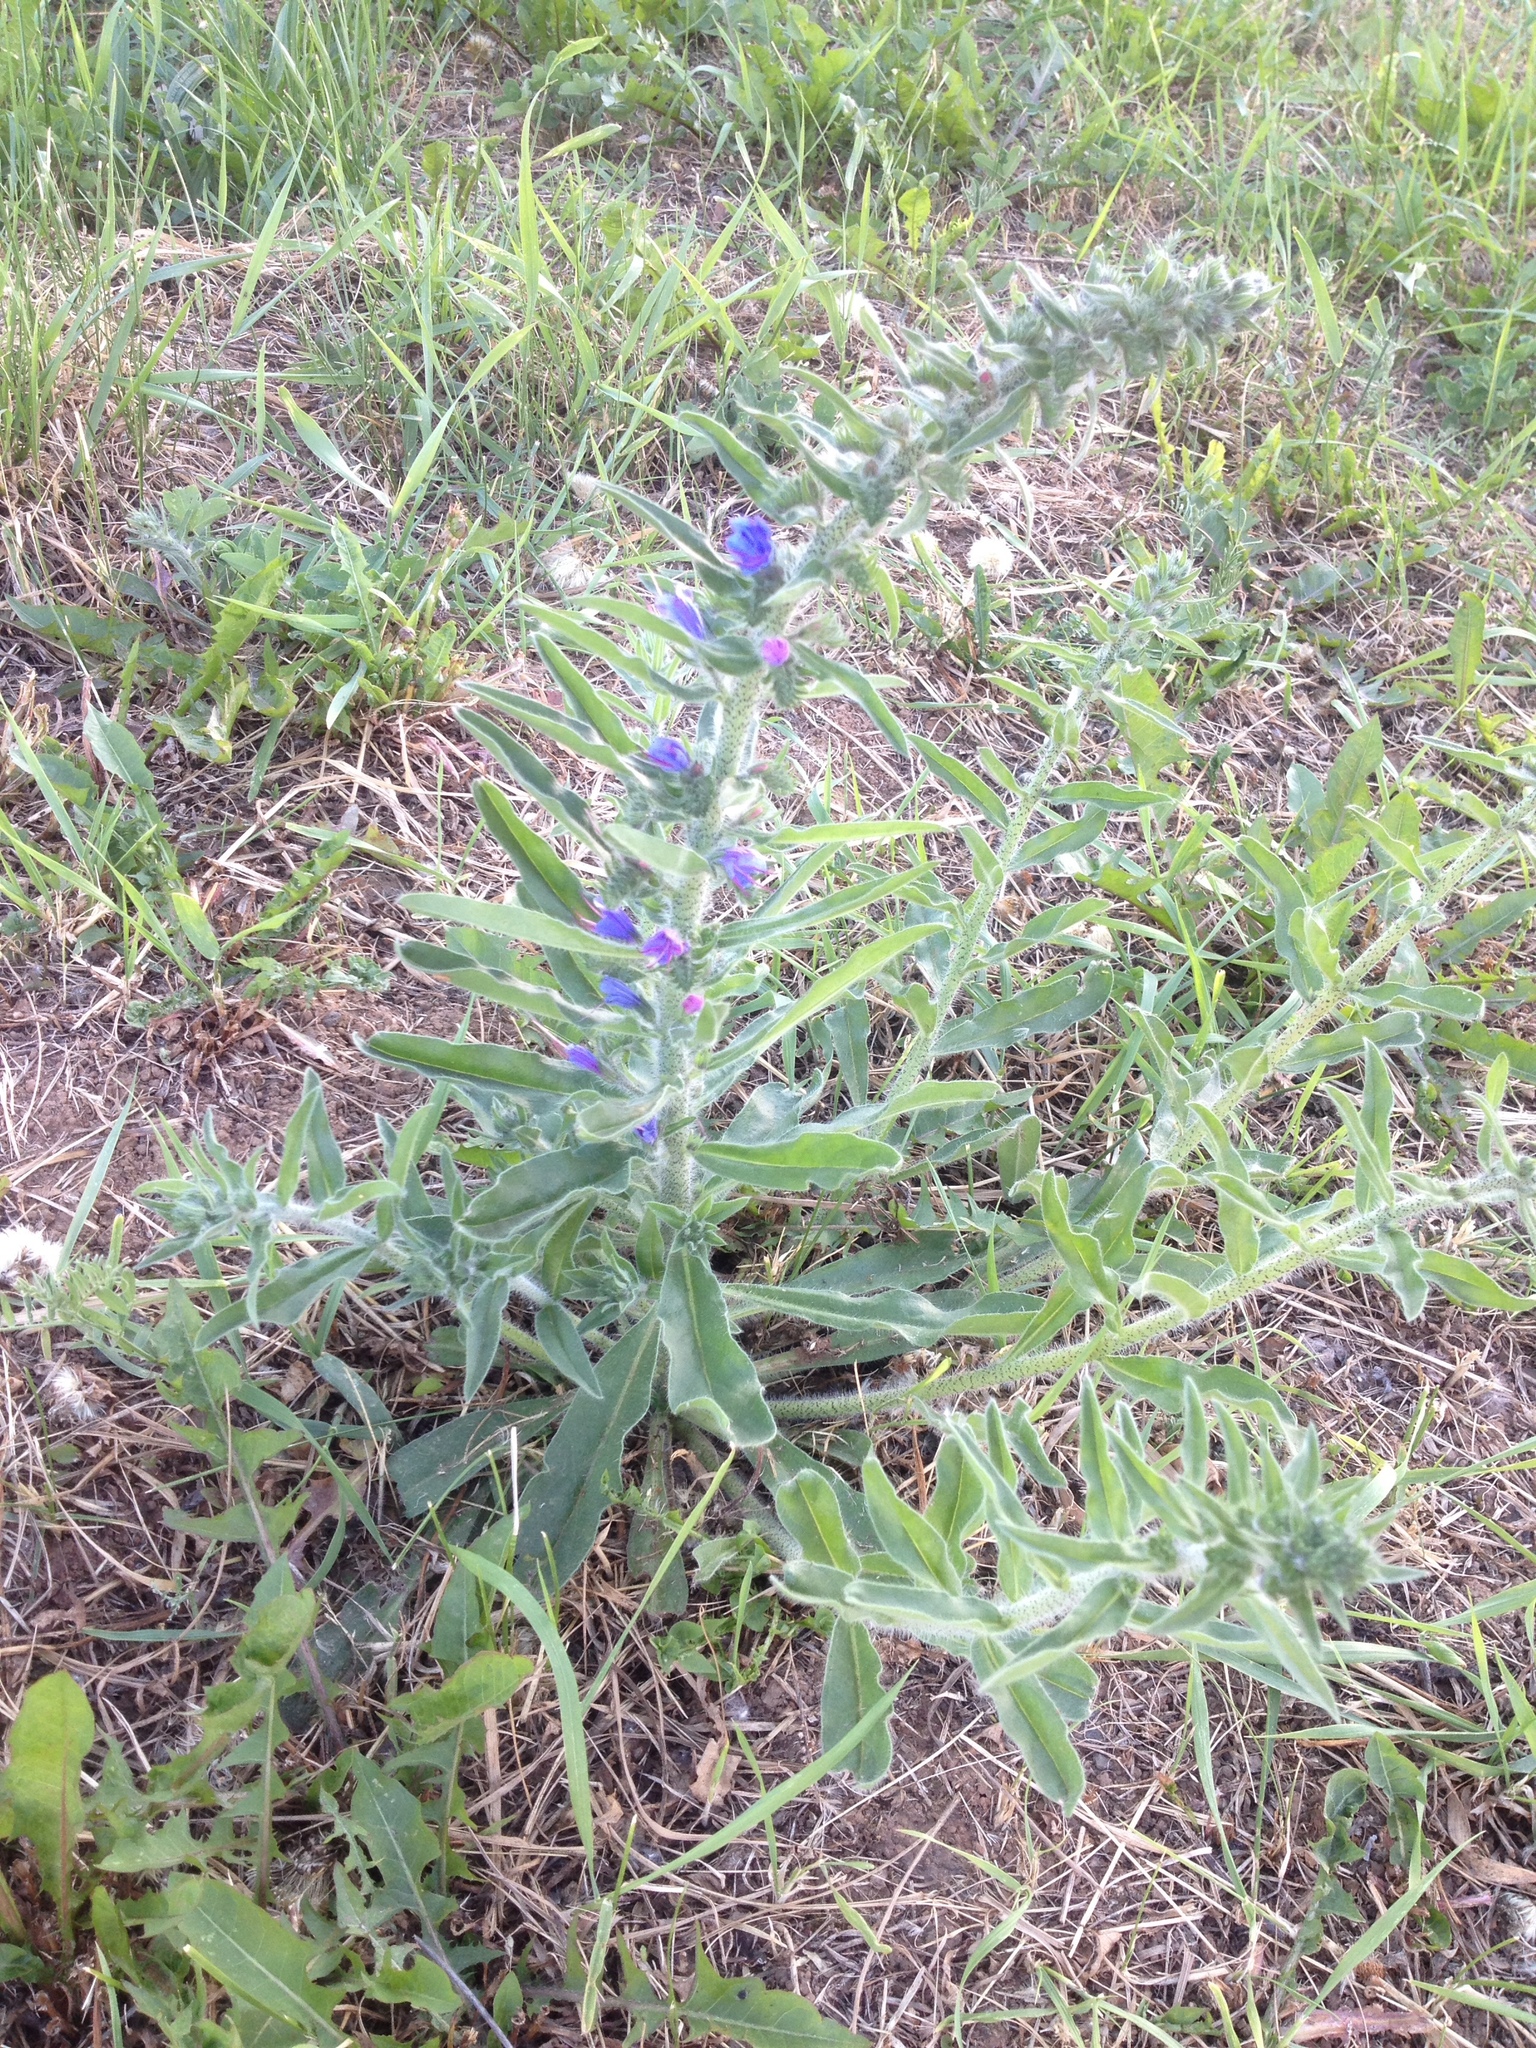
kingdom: Plantae
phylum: Tracheophyta
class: Magnoliopsida
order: Boraginales
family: Boraginaceae
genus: Echium
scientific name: Echium vulgare
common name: Common viper's bugloss
